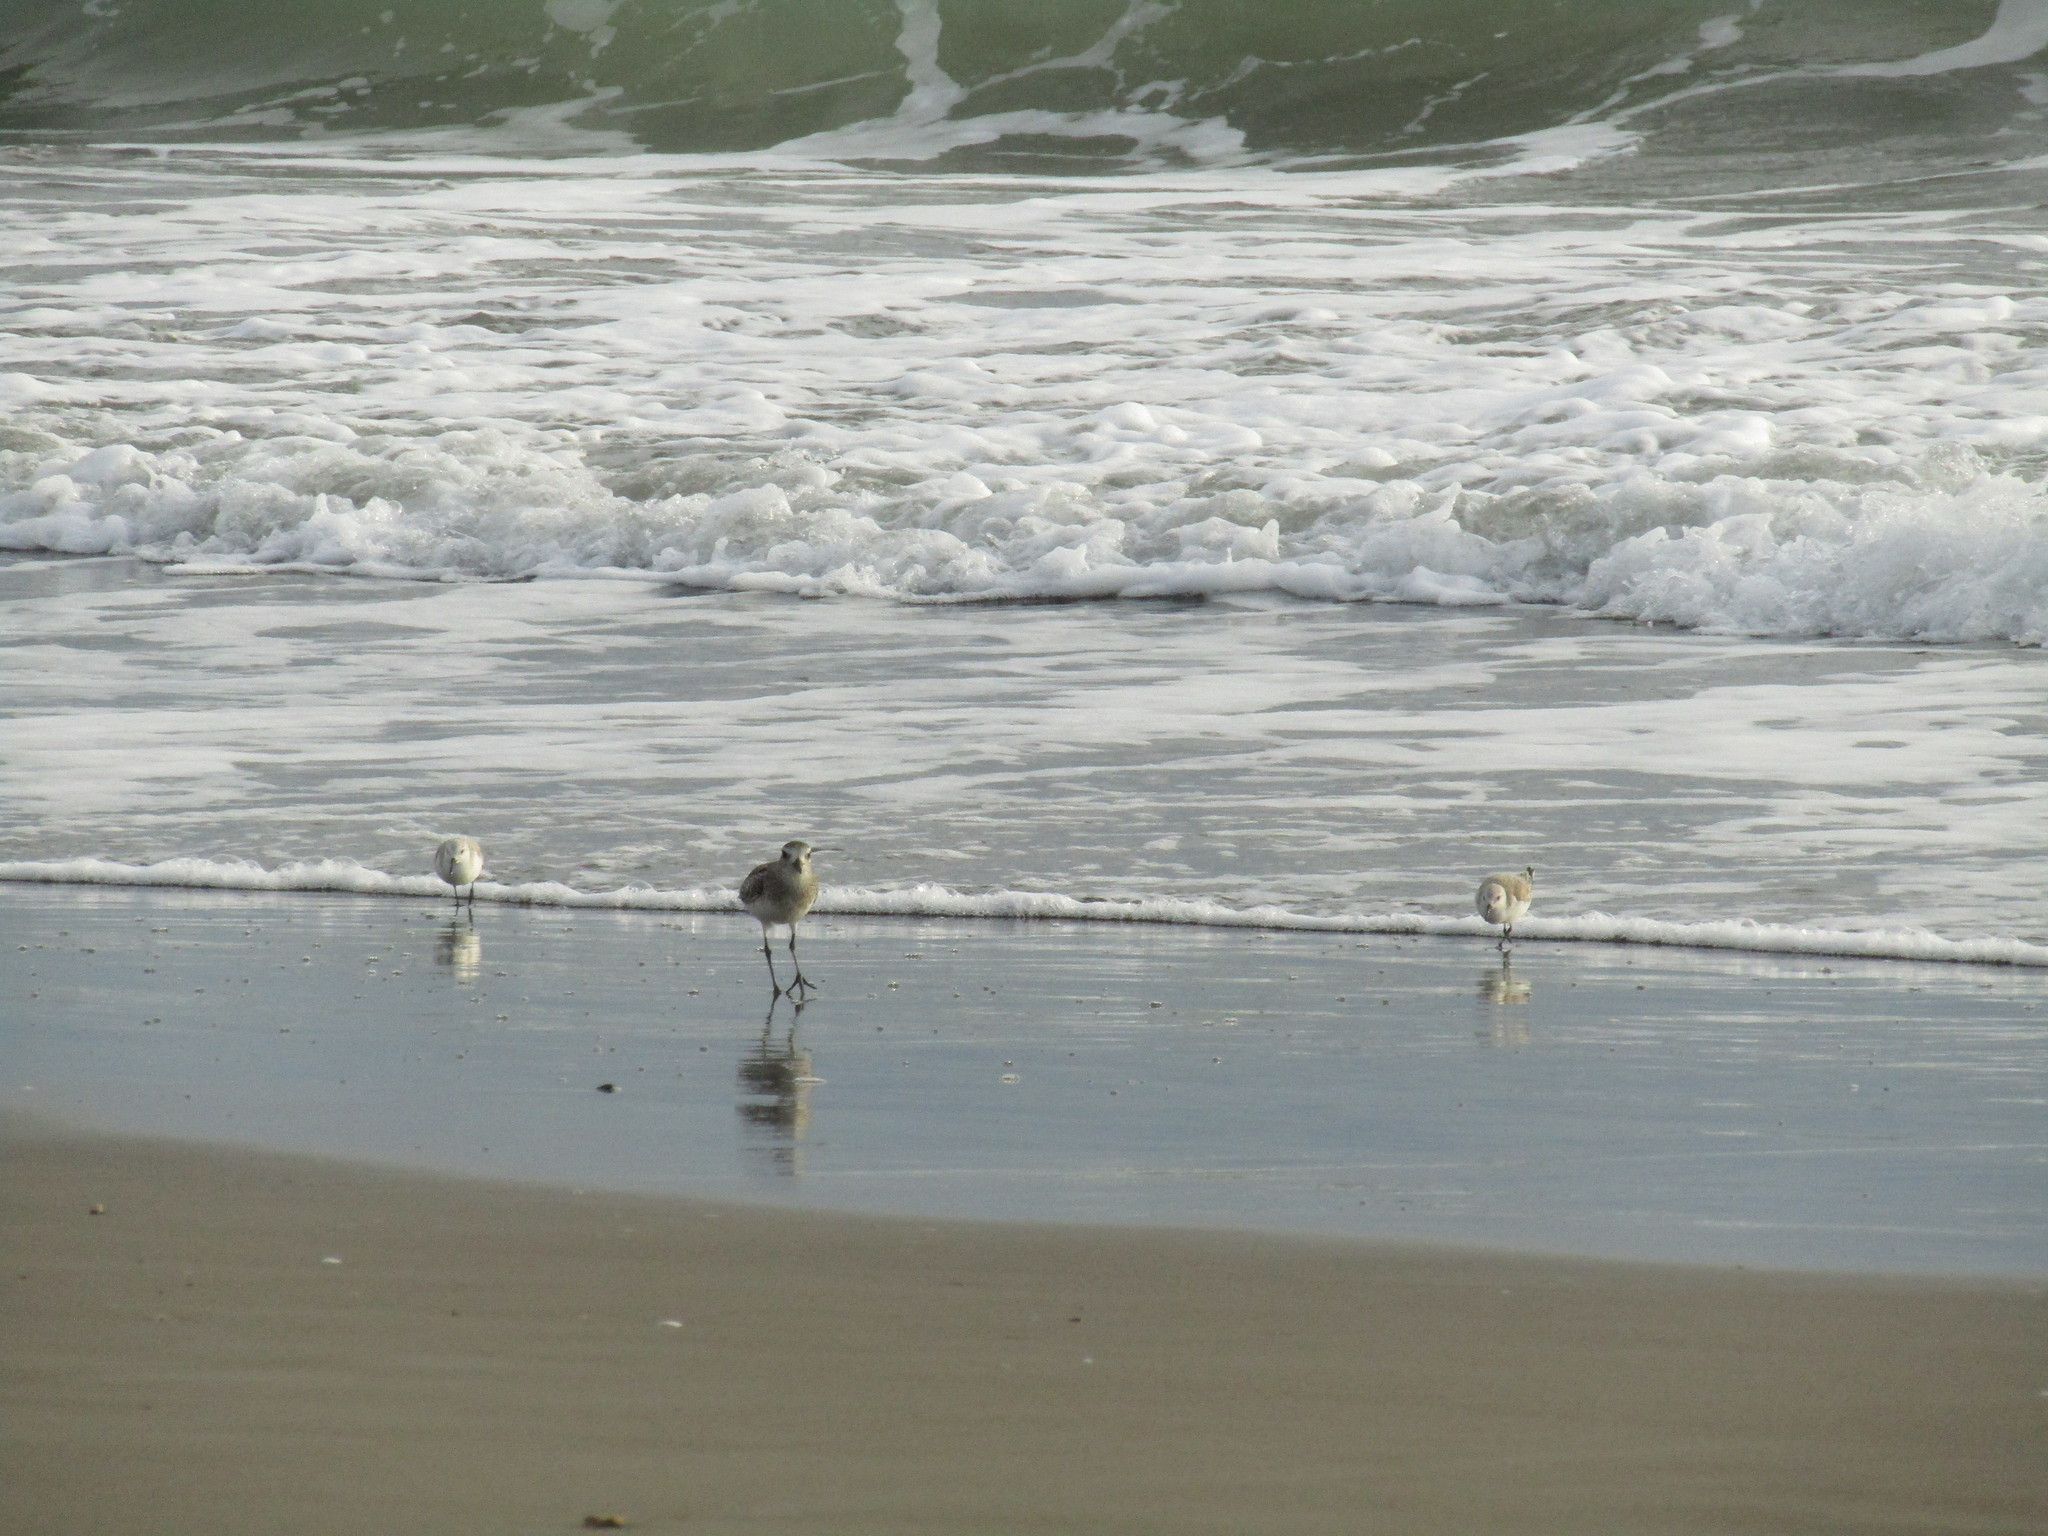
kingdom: Animalia
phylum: Chordata
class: Aves
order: Charadriiformes
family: Charadriidae
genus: Pluvialis
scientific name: Pluvialis squatarola
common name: Grey plover
